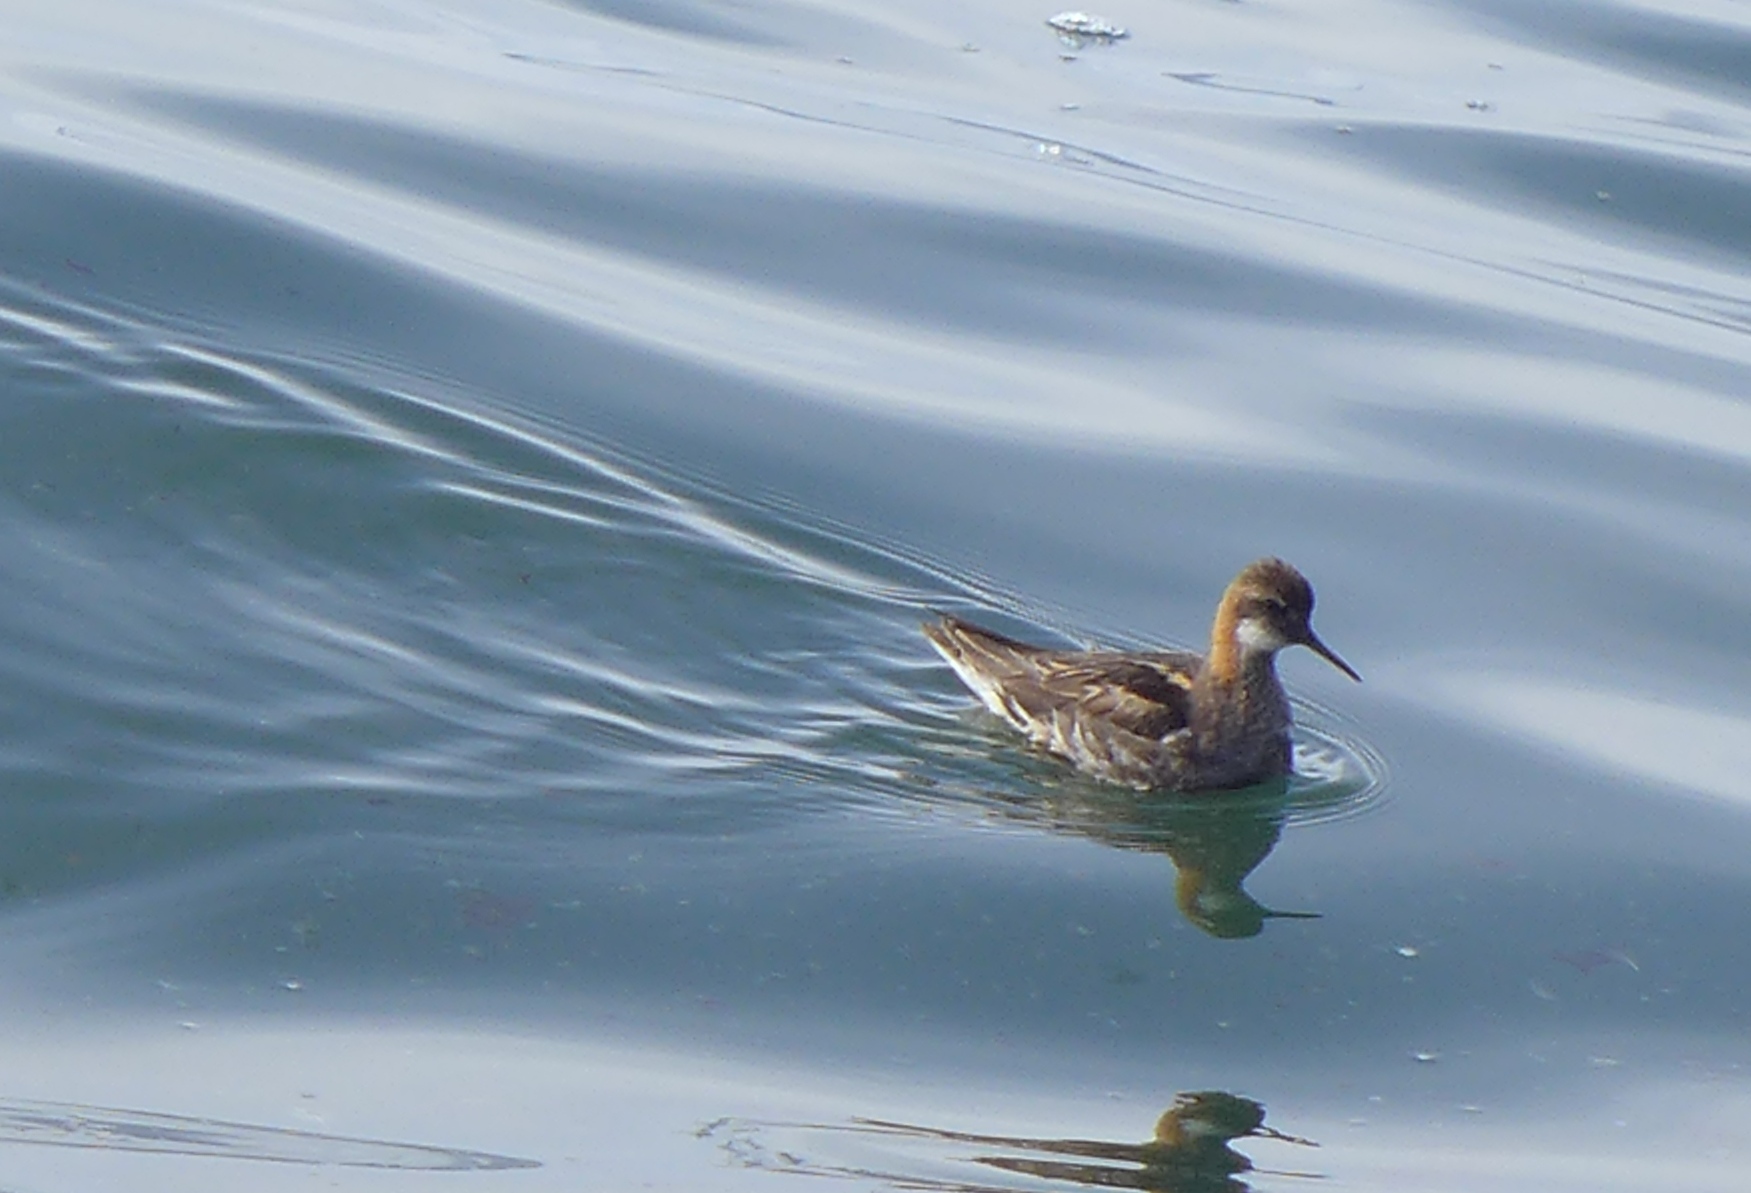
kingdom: Animalia
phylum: Chordata
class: Aves
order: Charadriiformes
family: Scolopacidae
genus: Phalaropus
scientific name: Phalaropus lobatus
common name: Red-necked phalarope
